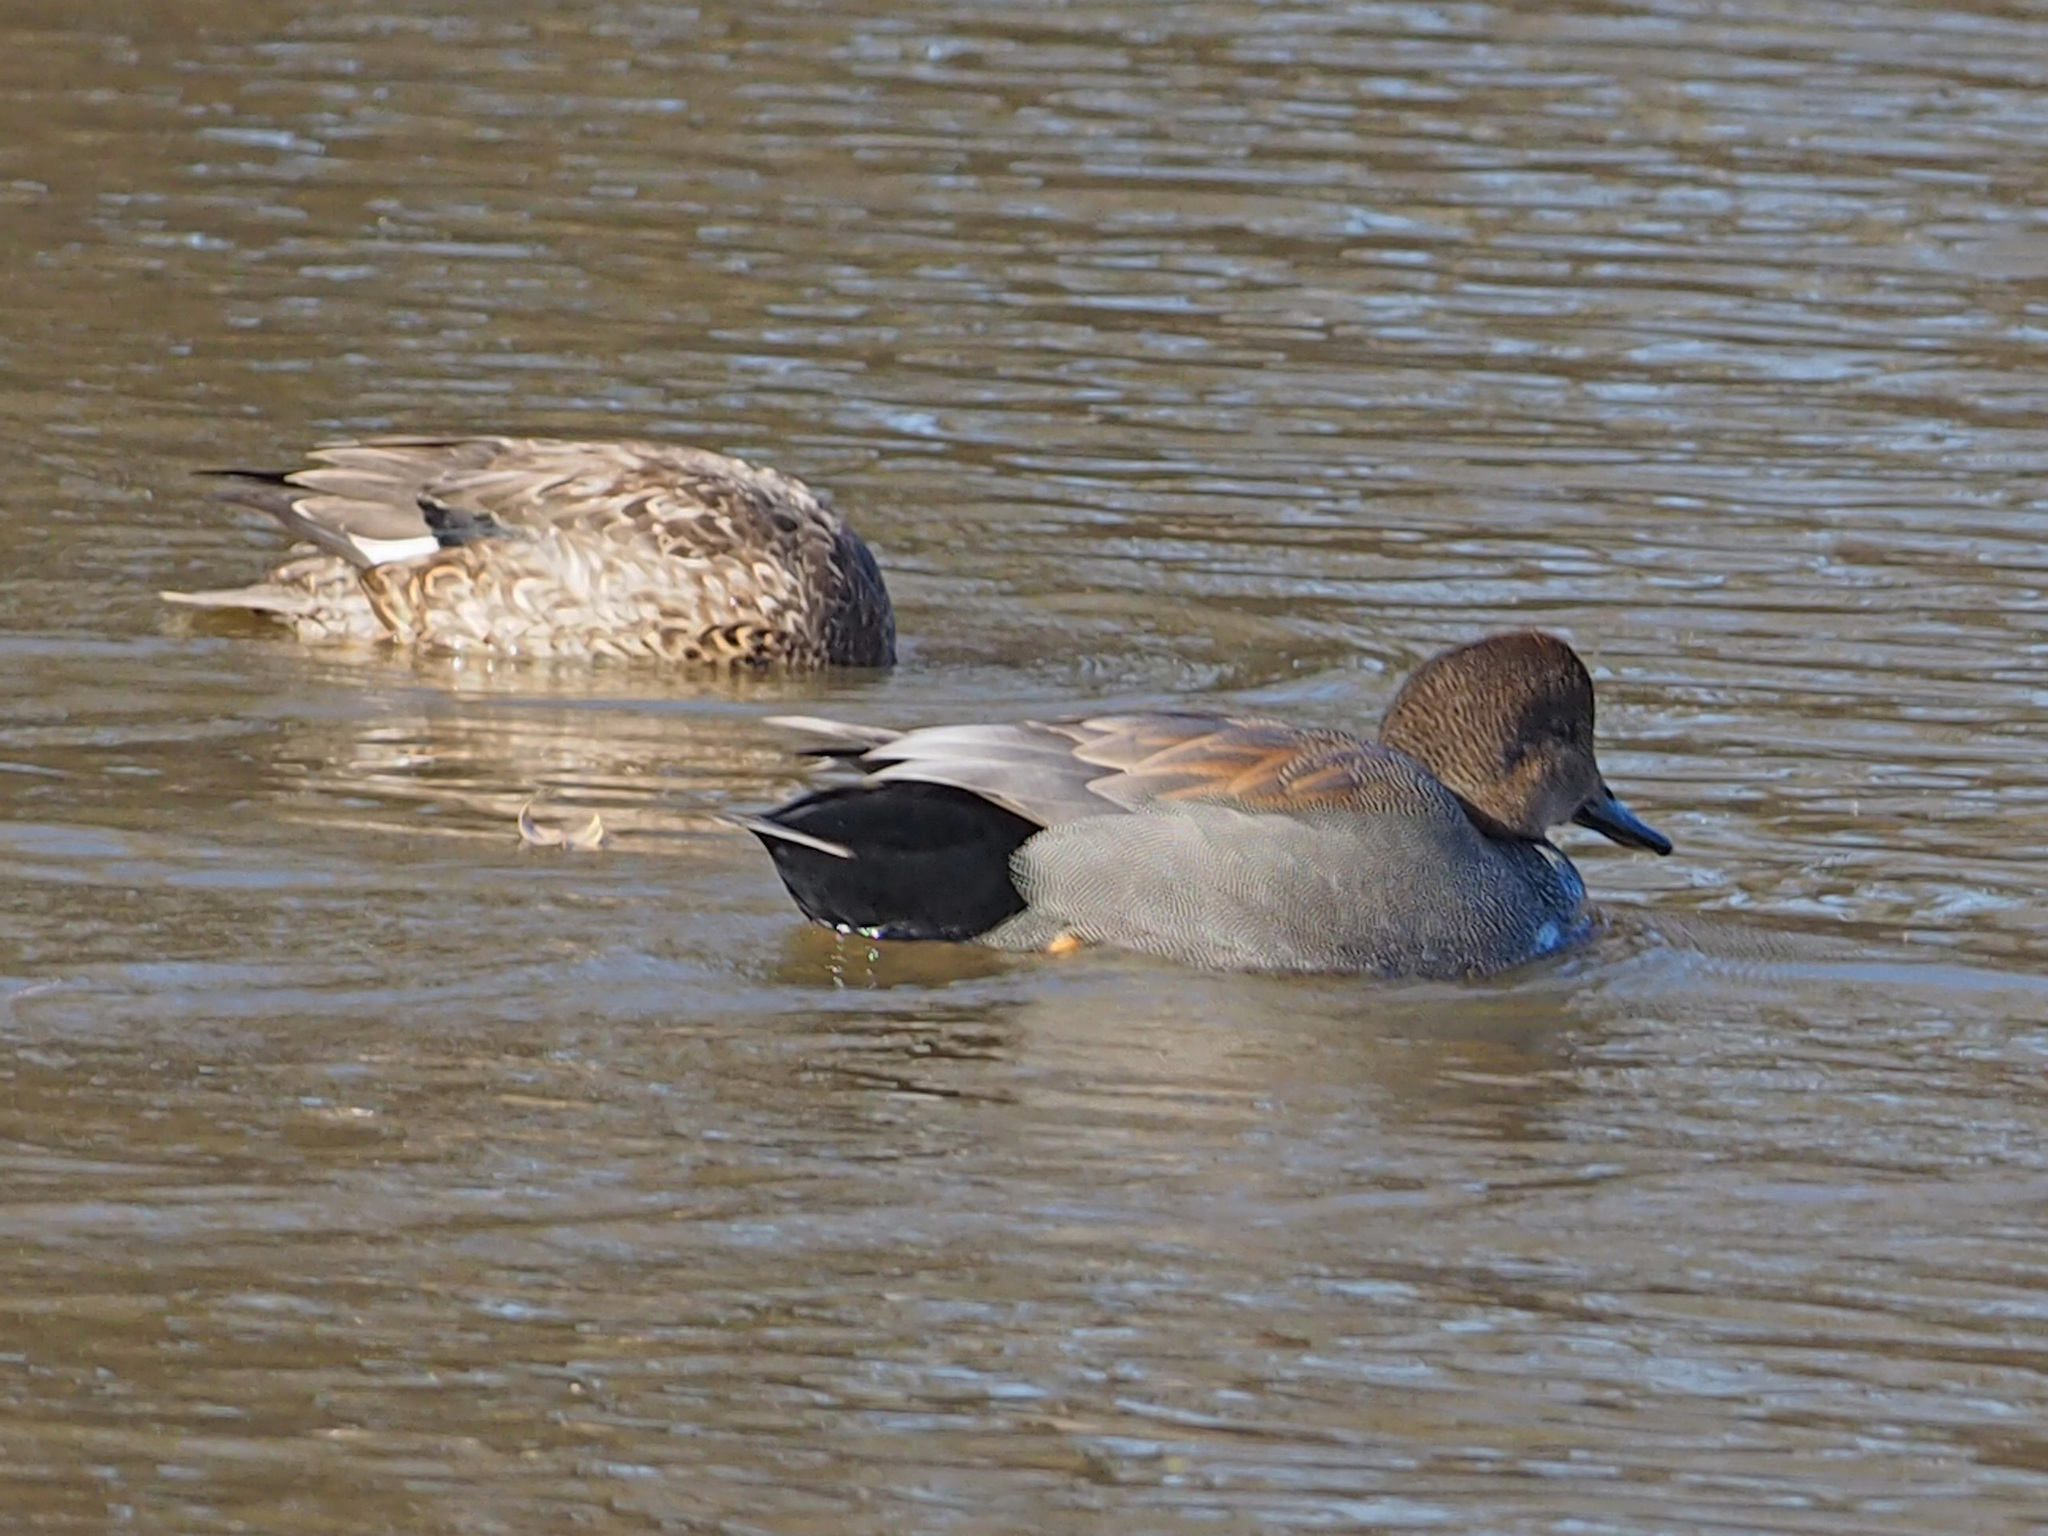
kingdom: Animalia
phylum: Chordata
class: Aves
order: Anseriformes
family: Anatidae
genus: Mareca
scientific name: Mareca strepera
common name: Gadwall
